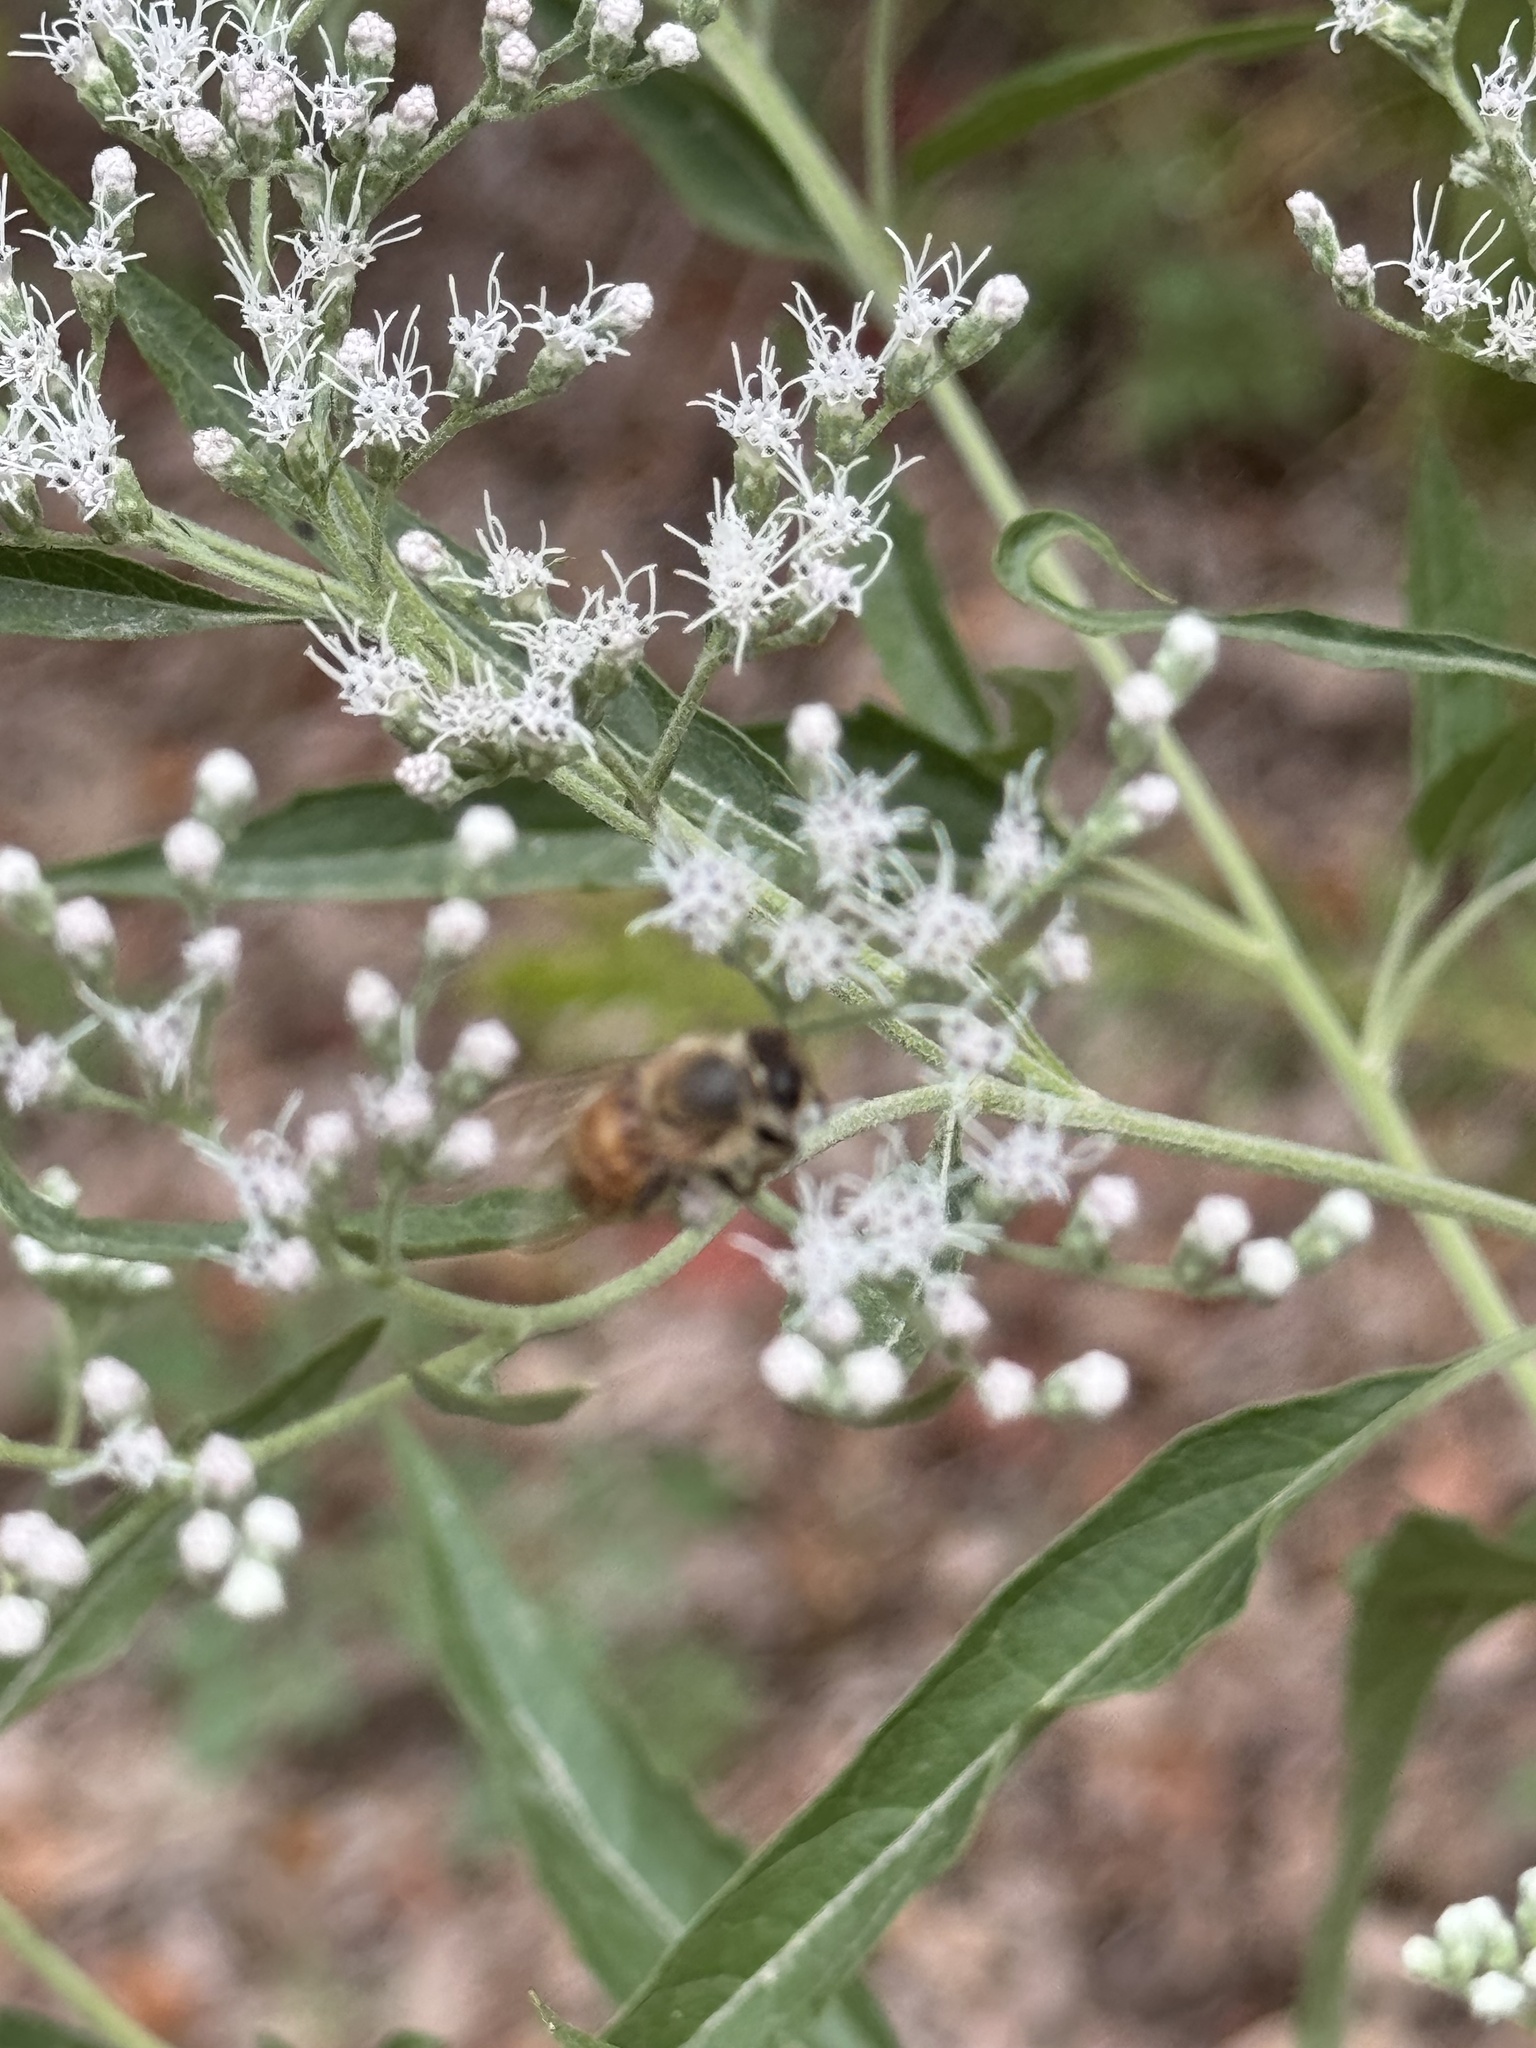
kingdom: Animalia
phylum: Arthropoda
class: Insecta
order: Hymenoptera
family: Apidae
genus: Apis
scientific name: Apis mellifera
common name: Honey bee
